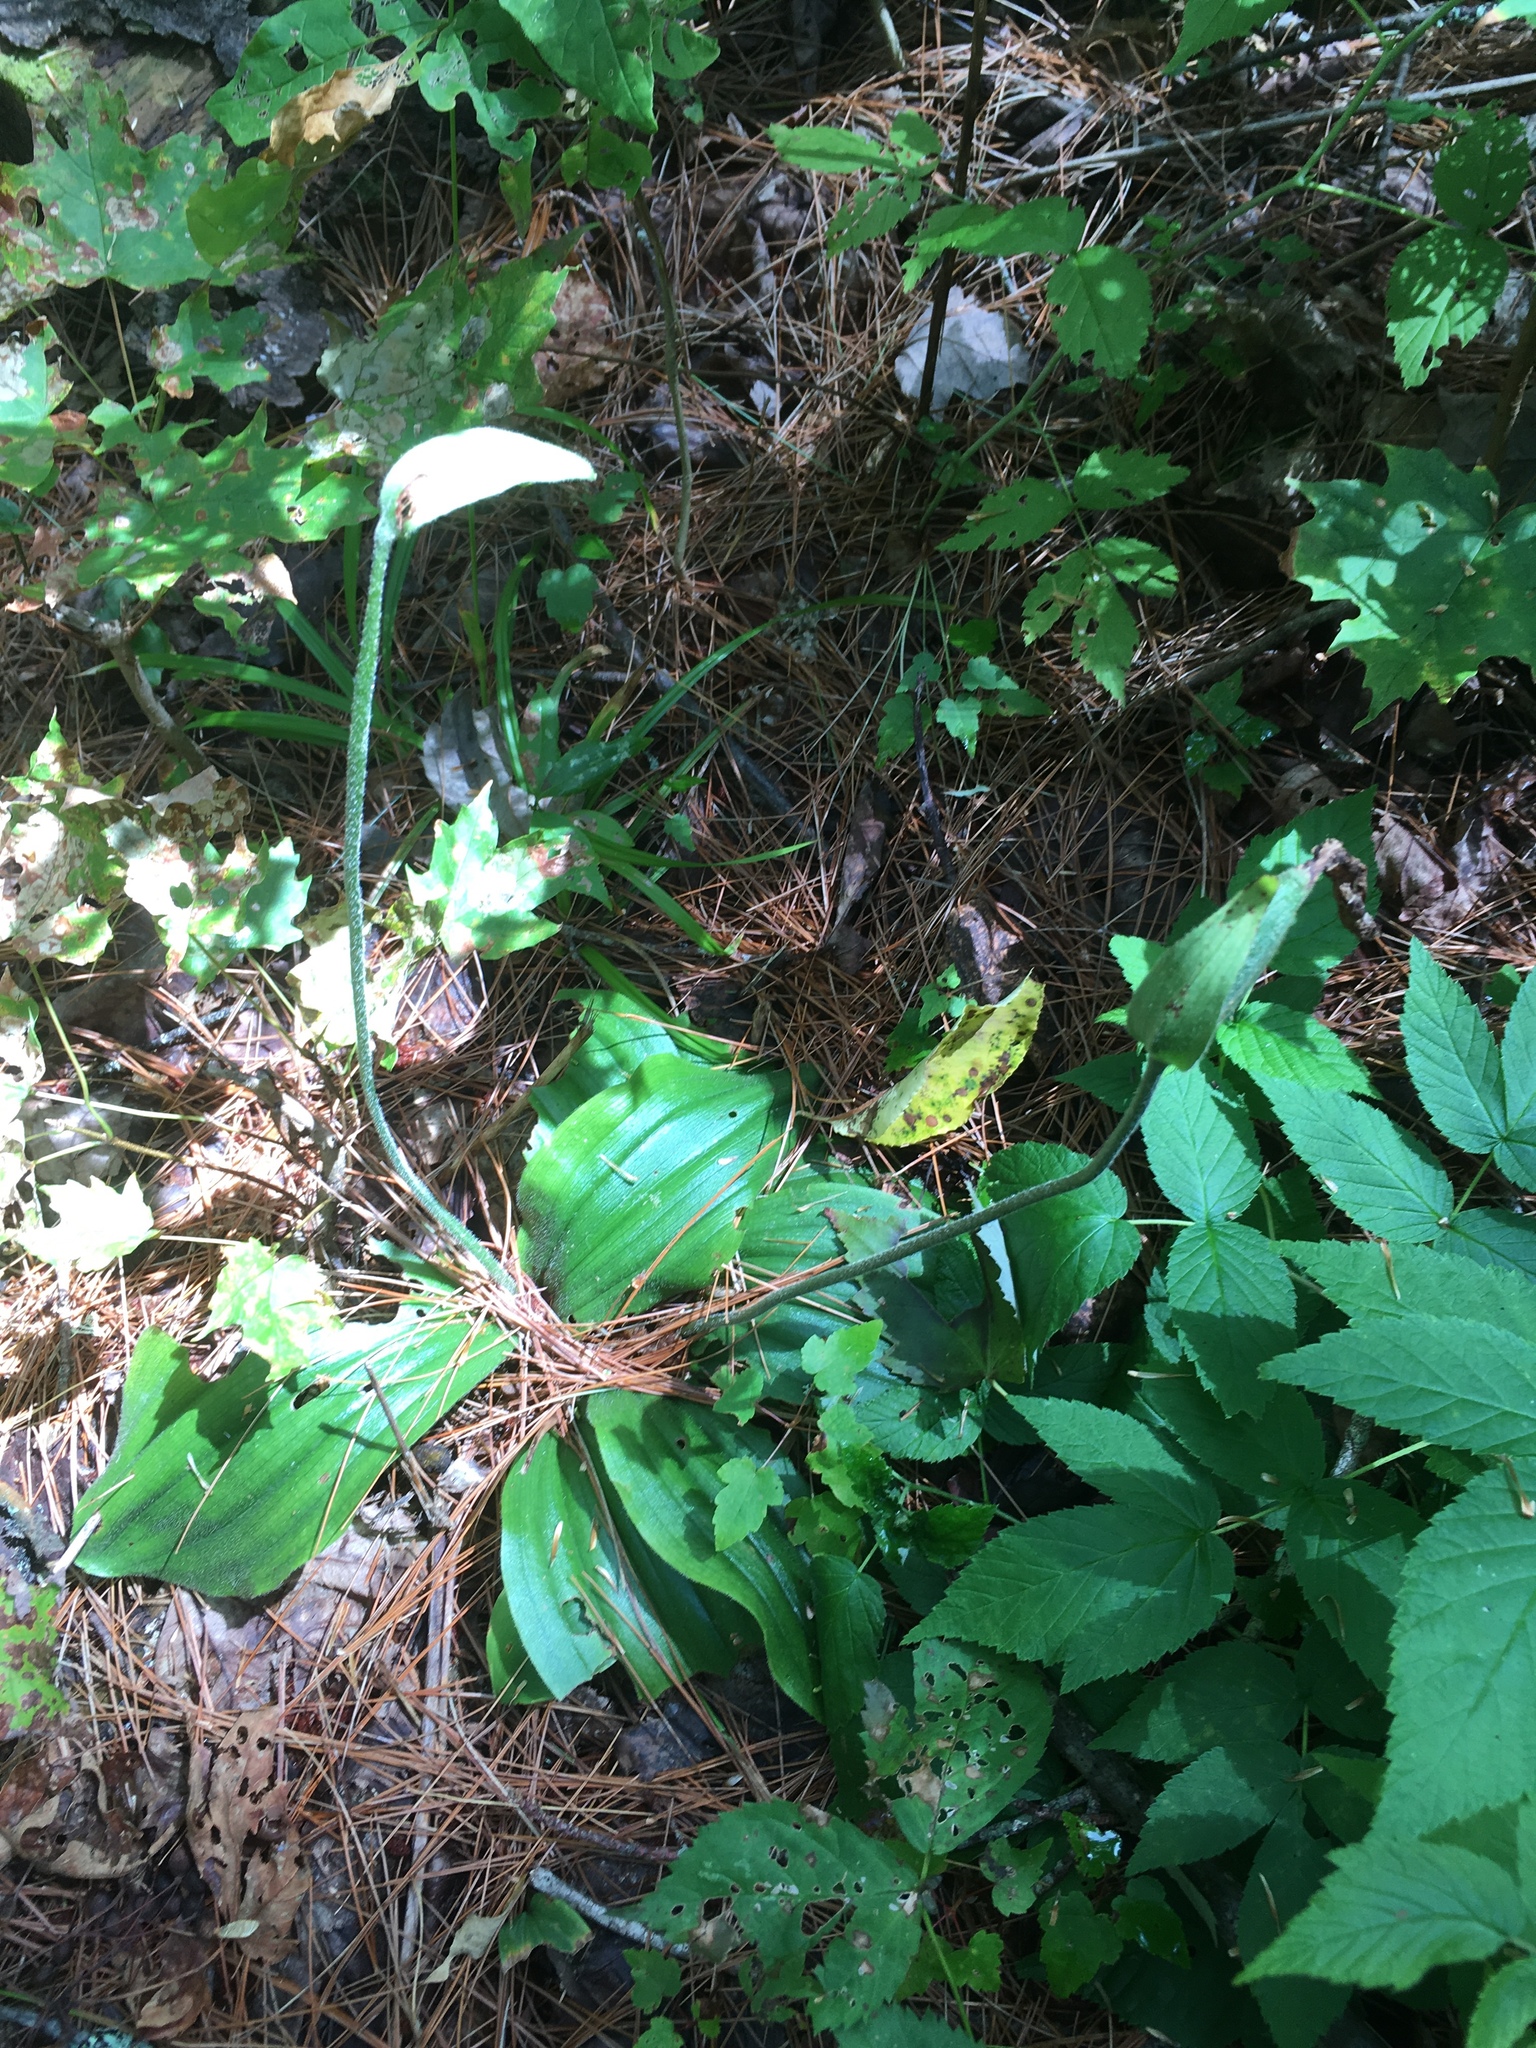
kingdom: Plantae
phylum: Tracheophyta
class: Liliopsida
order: Asparagales
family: Orchidaceae
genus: Cypripedium
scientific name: Cypripedium acaule
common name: Pink lady's-slipper
